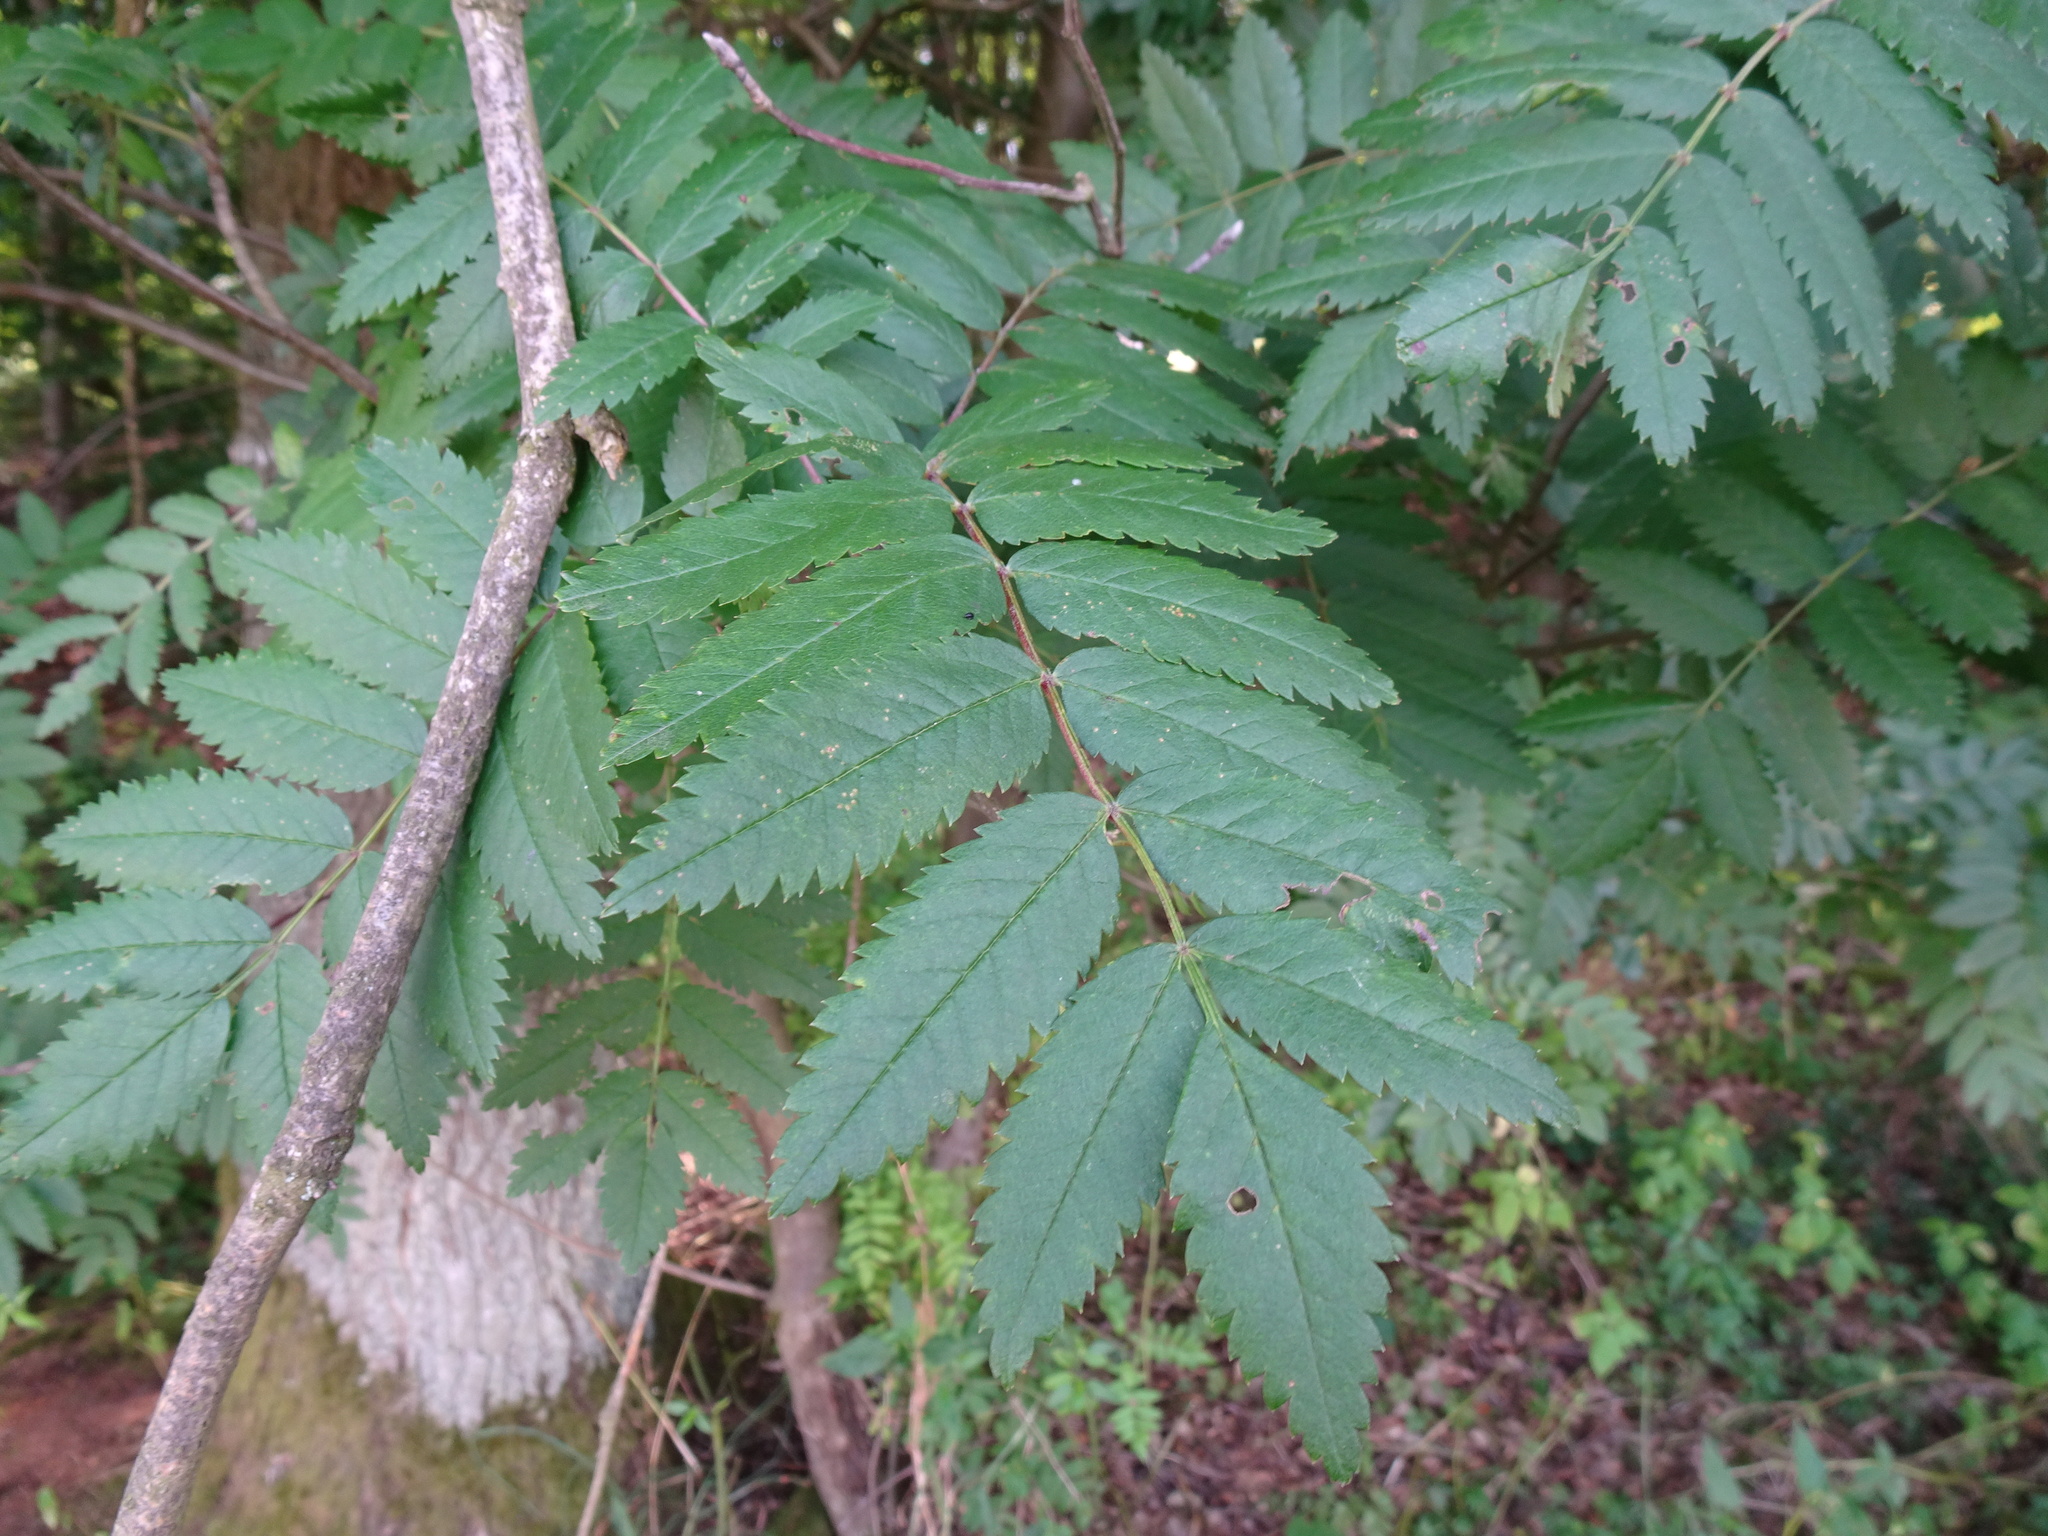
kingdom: Plantae
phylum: Tracheophyta
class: Magnoliopsida
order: Rosales
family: Rosaceae
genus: Sorbus
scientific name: Sorbus aucuparia
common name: Rowan
